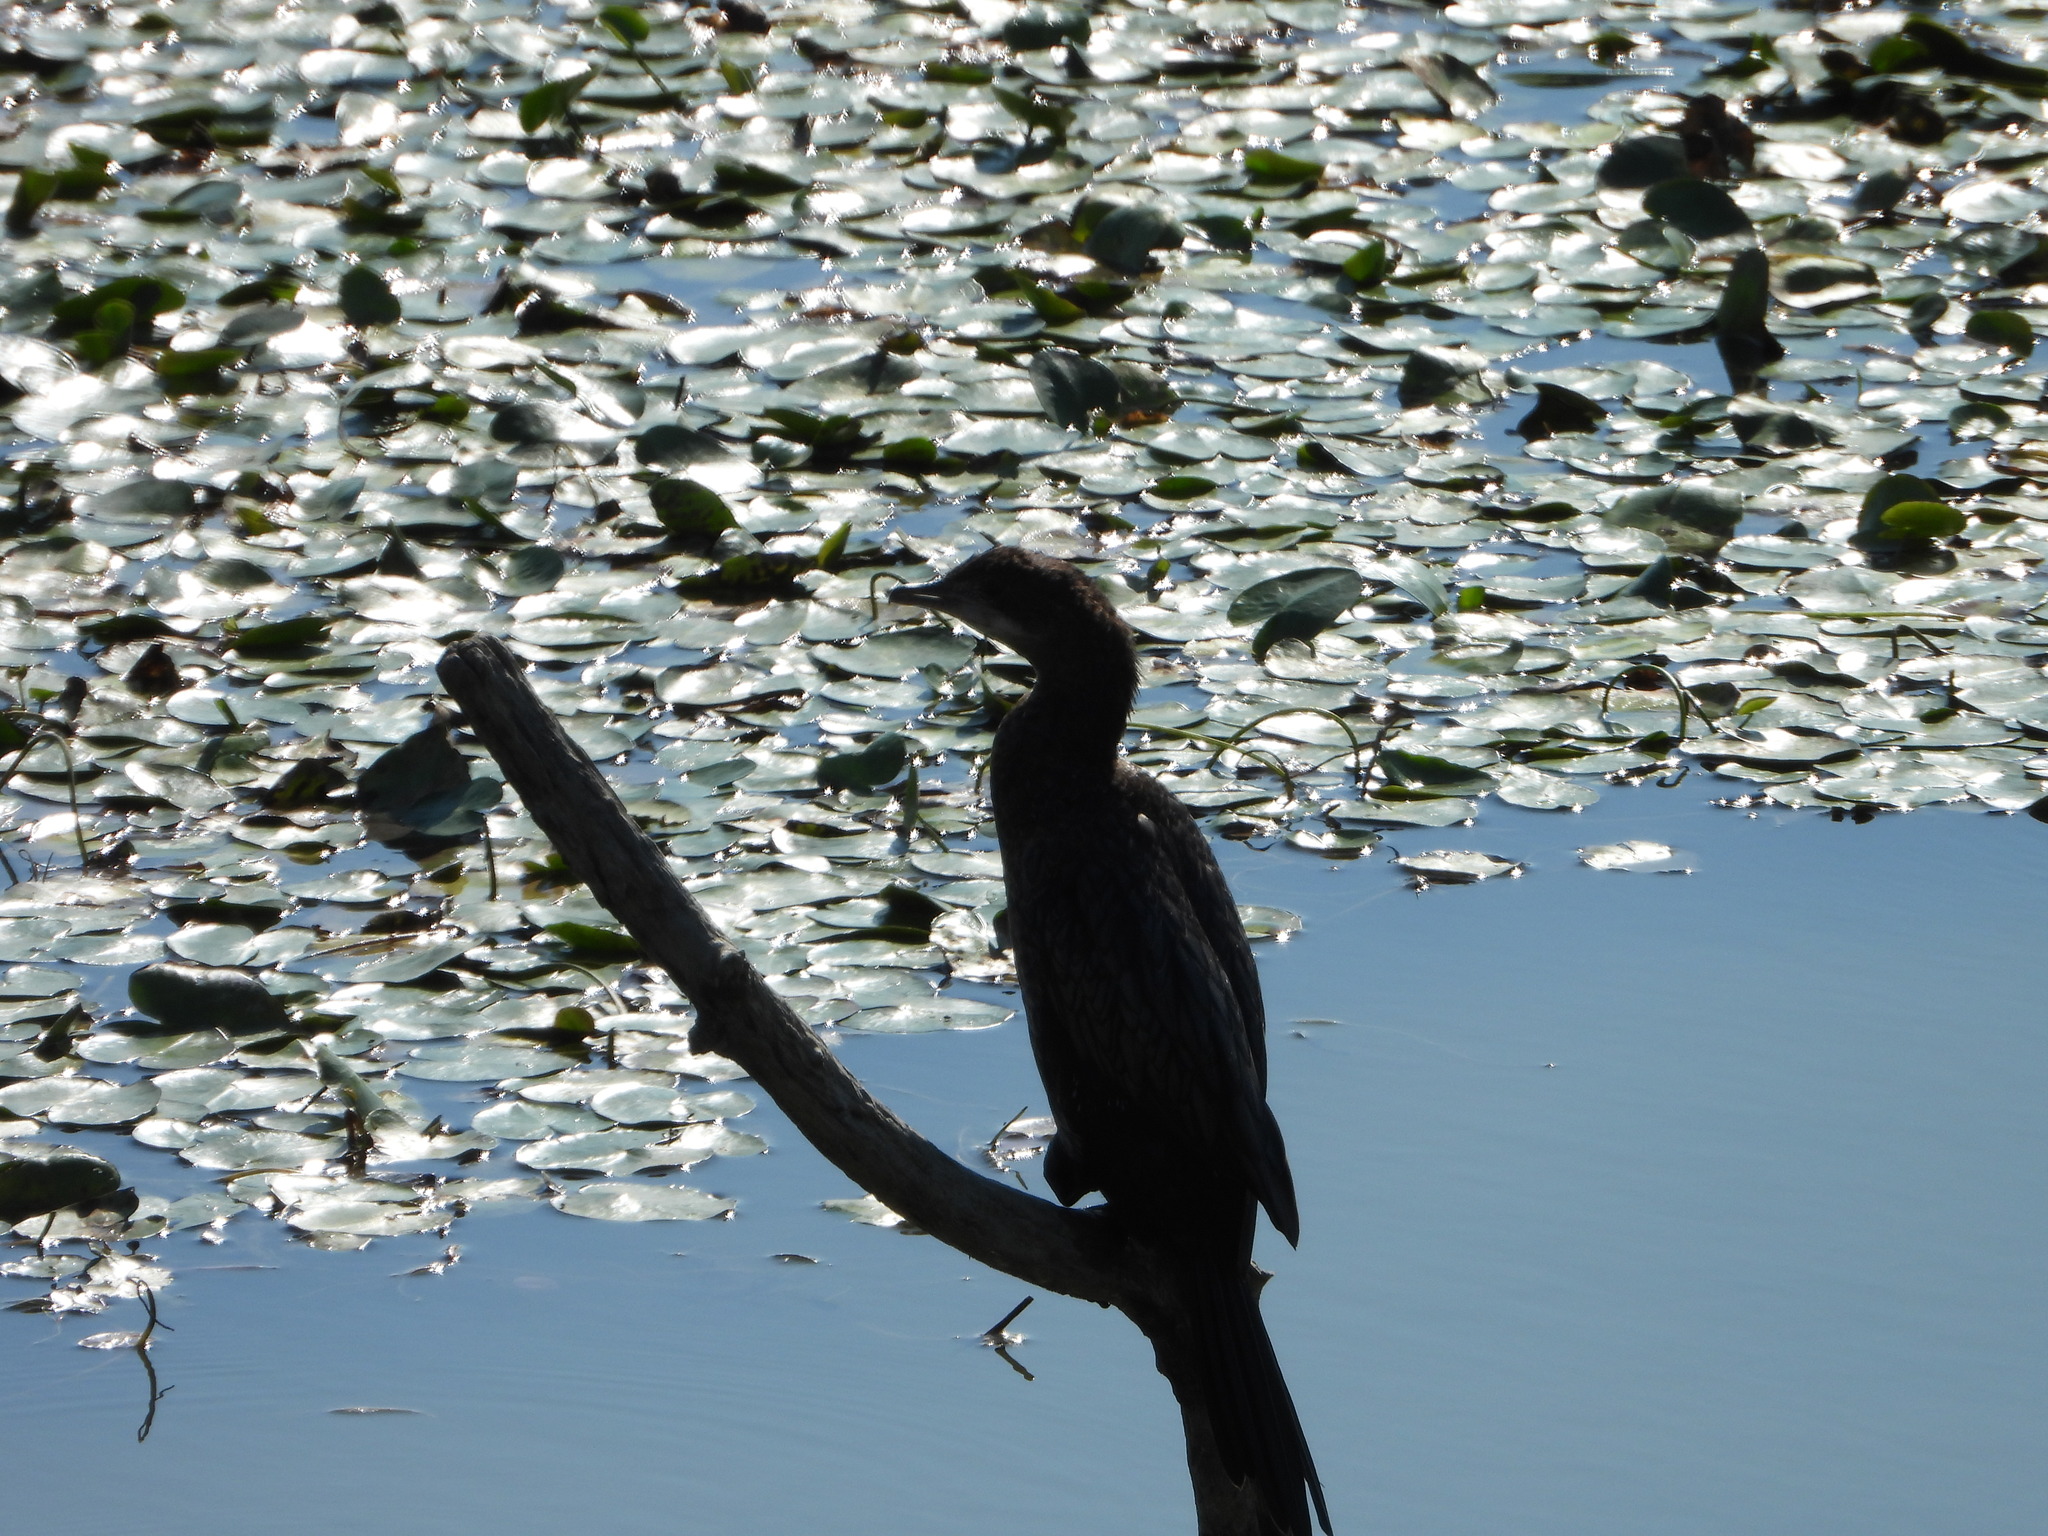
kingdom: Animalia
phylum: Chordata
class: Aves
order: Suliformes
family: Phalacrocoracidae
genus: Microcarbo
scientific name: Microcarbo pygmaeus
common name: Pygmy cormorant
